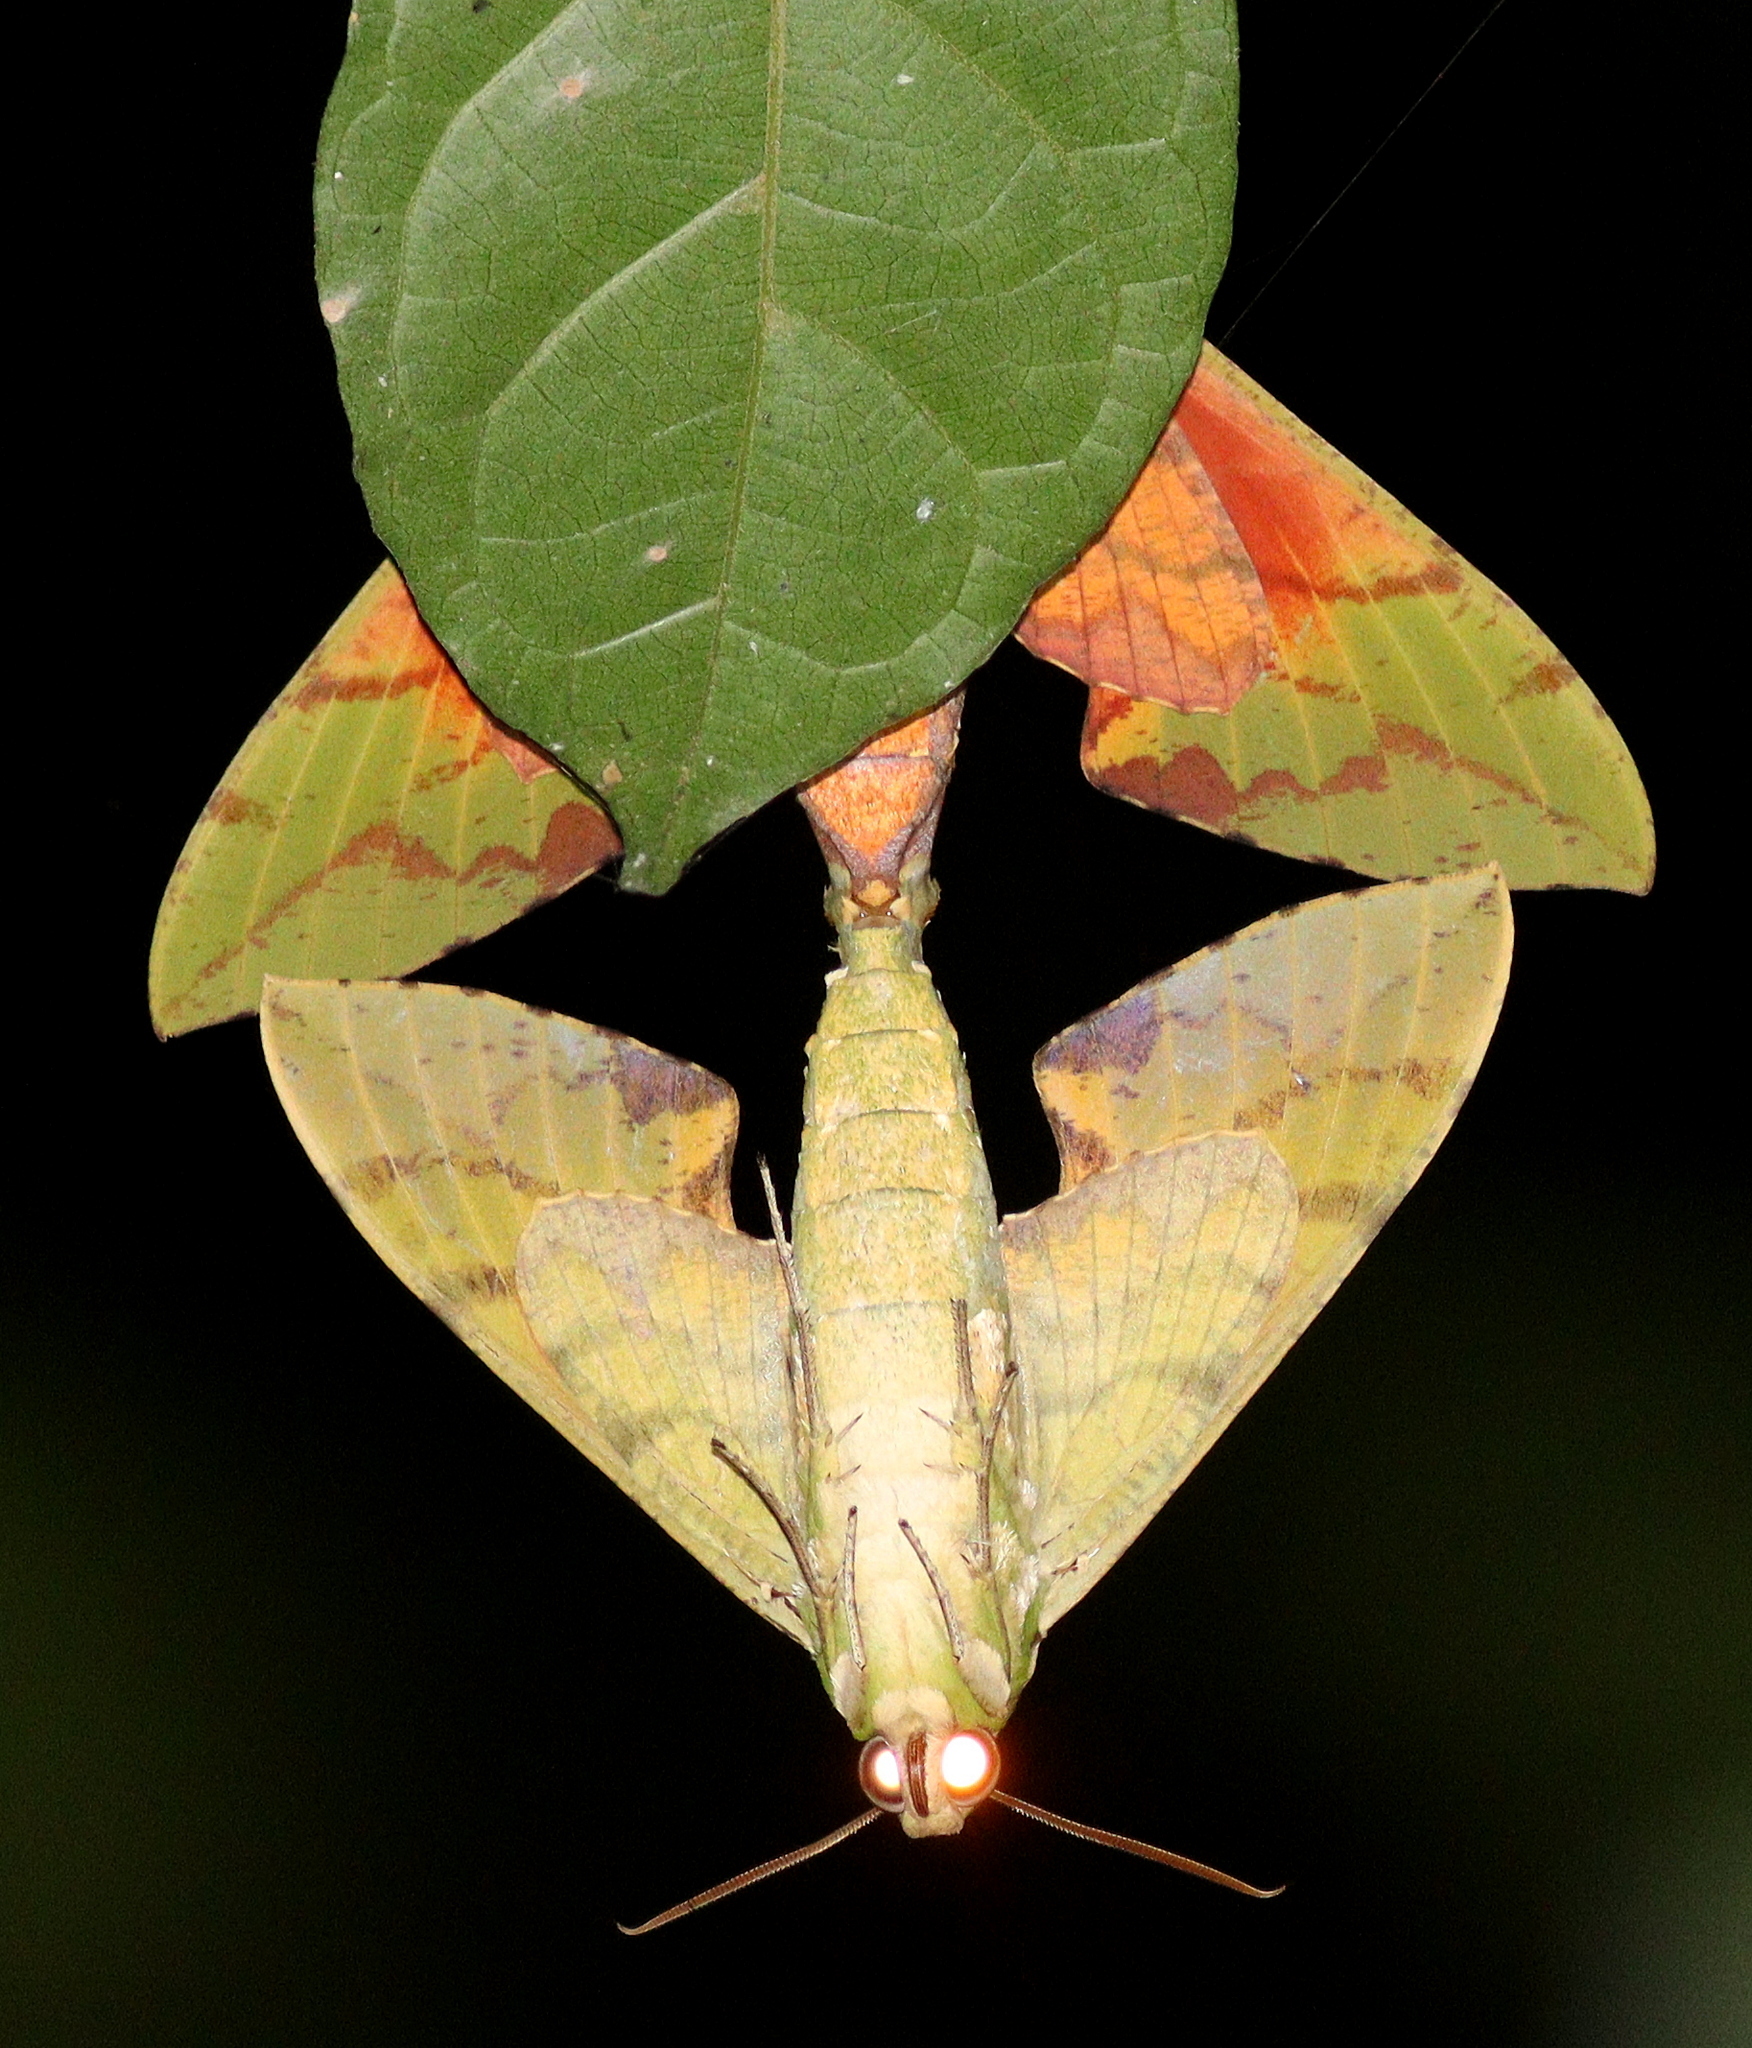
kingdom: Animalia
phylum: Arthropoda
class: Insecta
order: Lepidoptera
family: Sphingidae
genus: Euchloron
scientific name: Euchloron megaera
